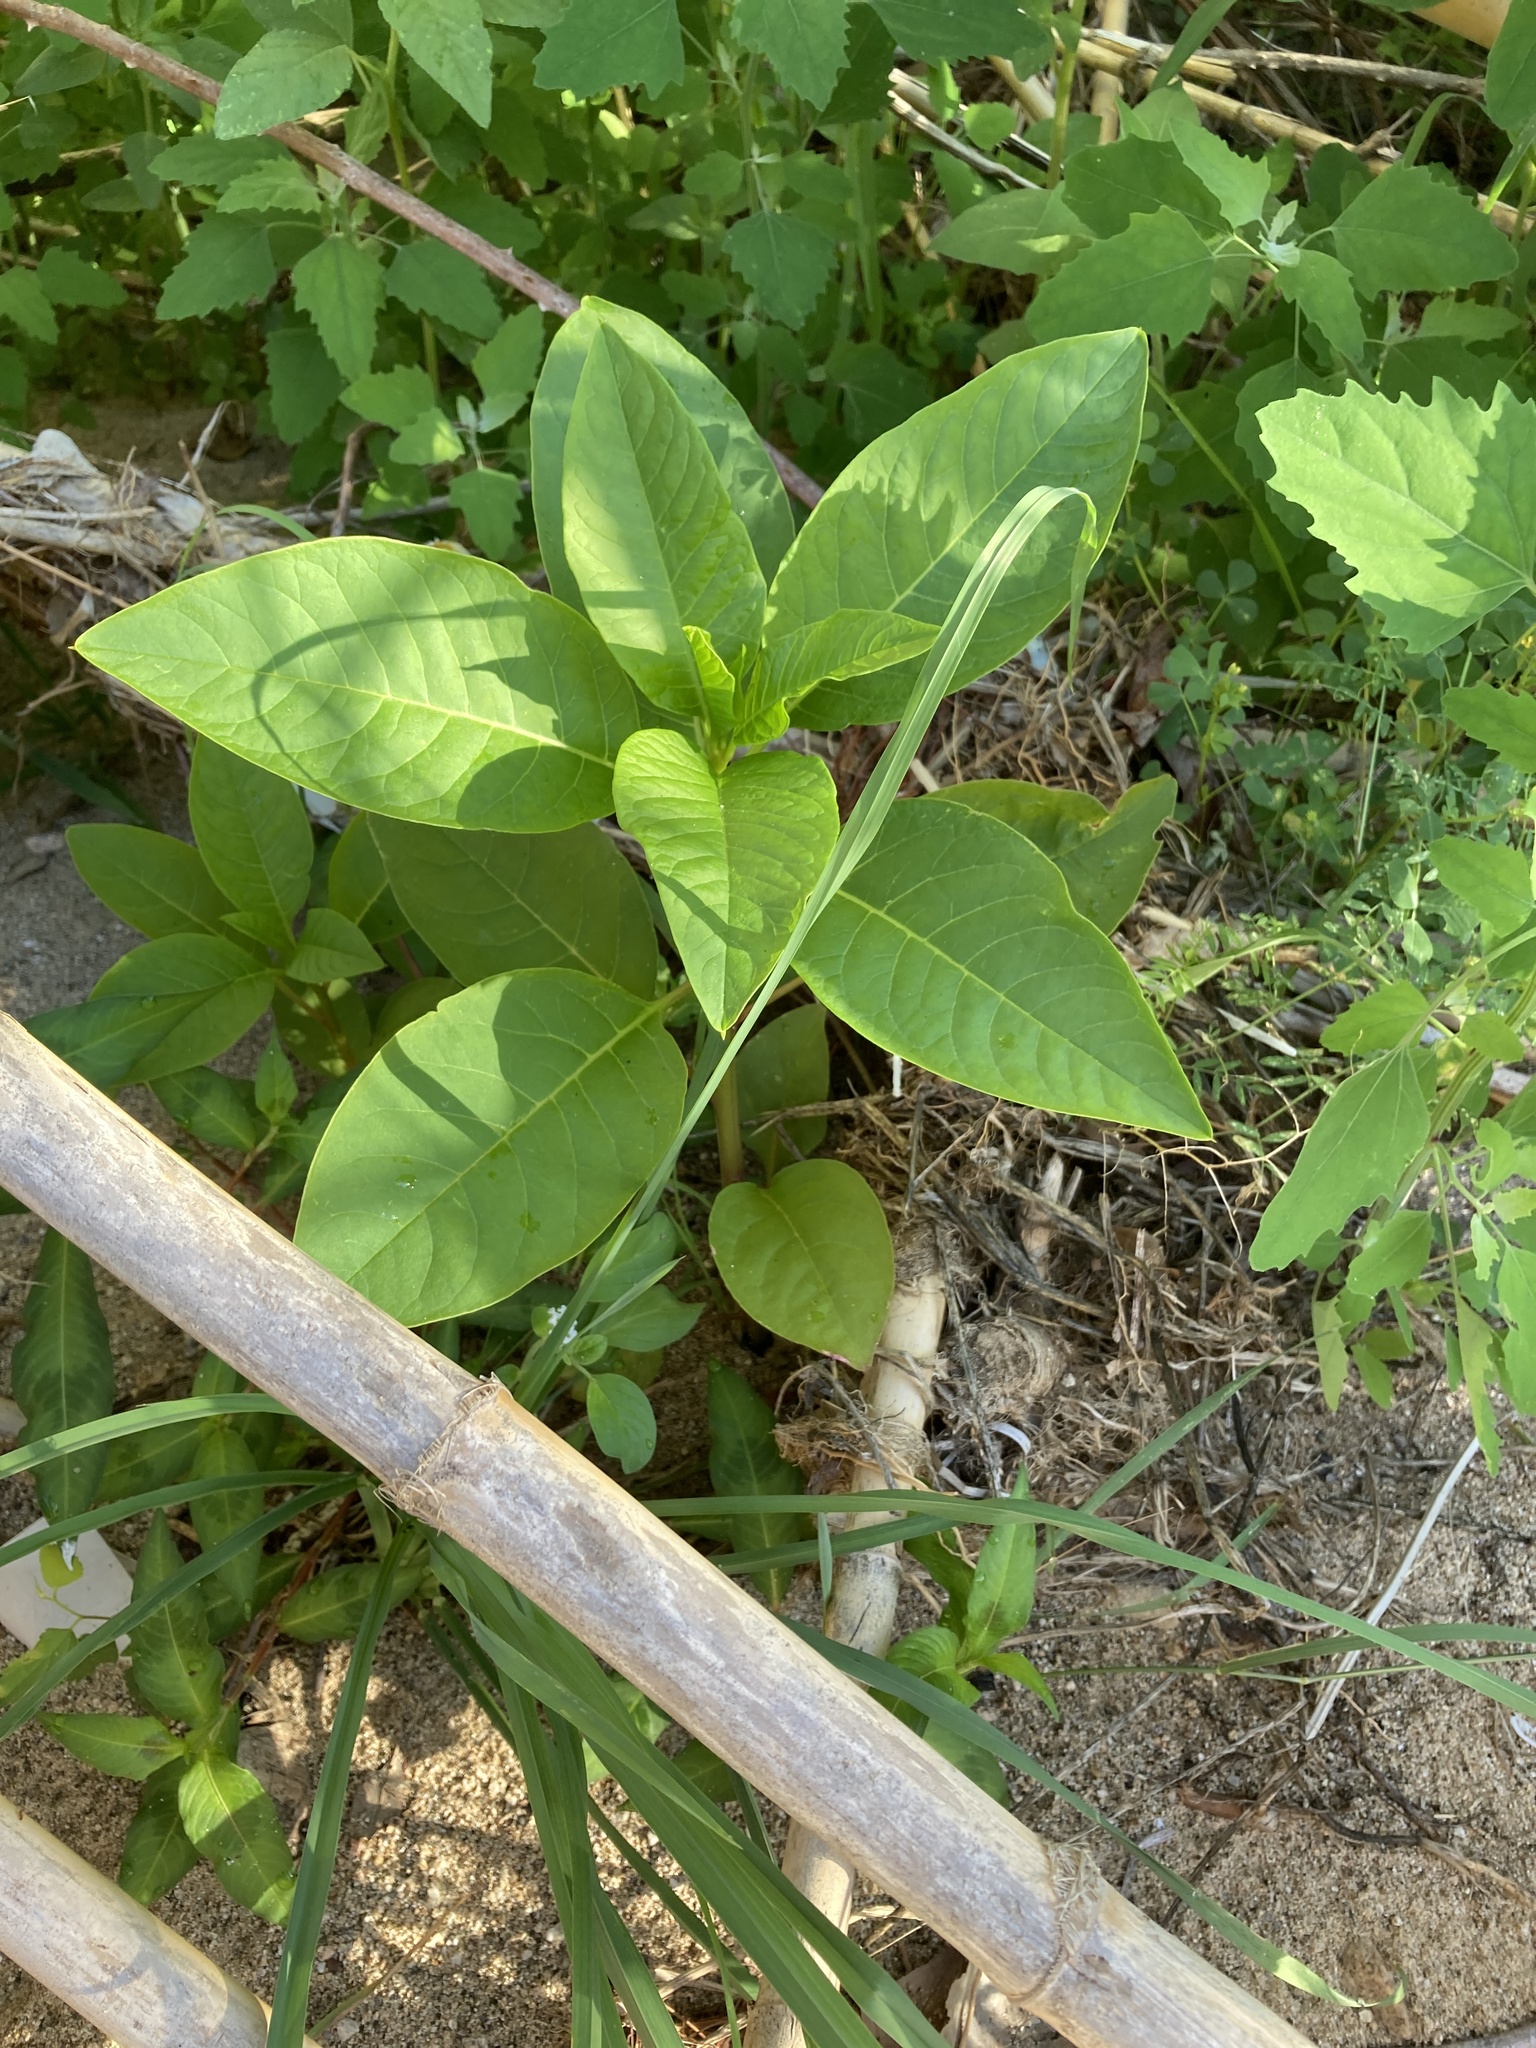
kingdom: Plantae
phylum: Tracheophyta
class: Magnoliopsida
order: Caryophyllales
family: Phytolaccaceae
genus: Phytolacca
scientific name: Phytolacca americana
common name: American pokeweed
